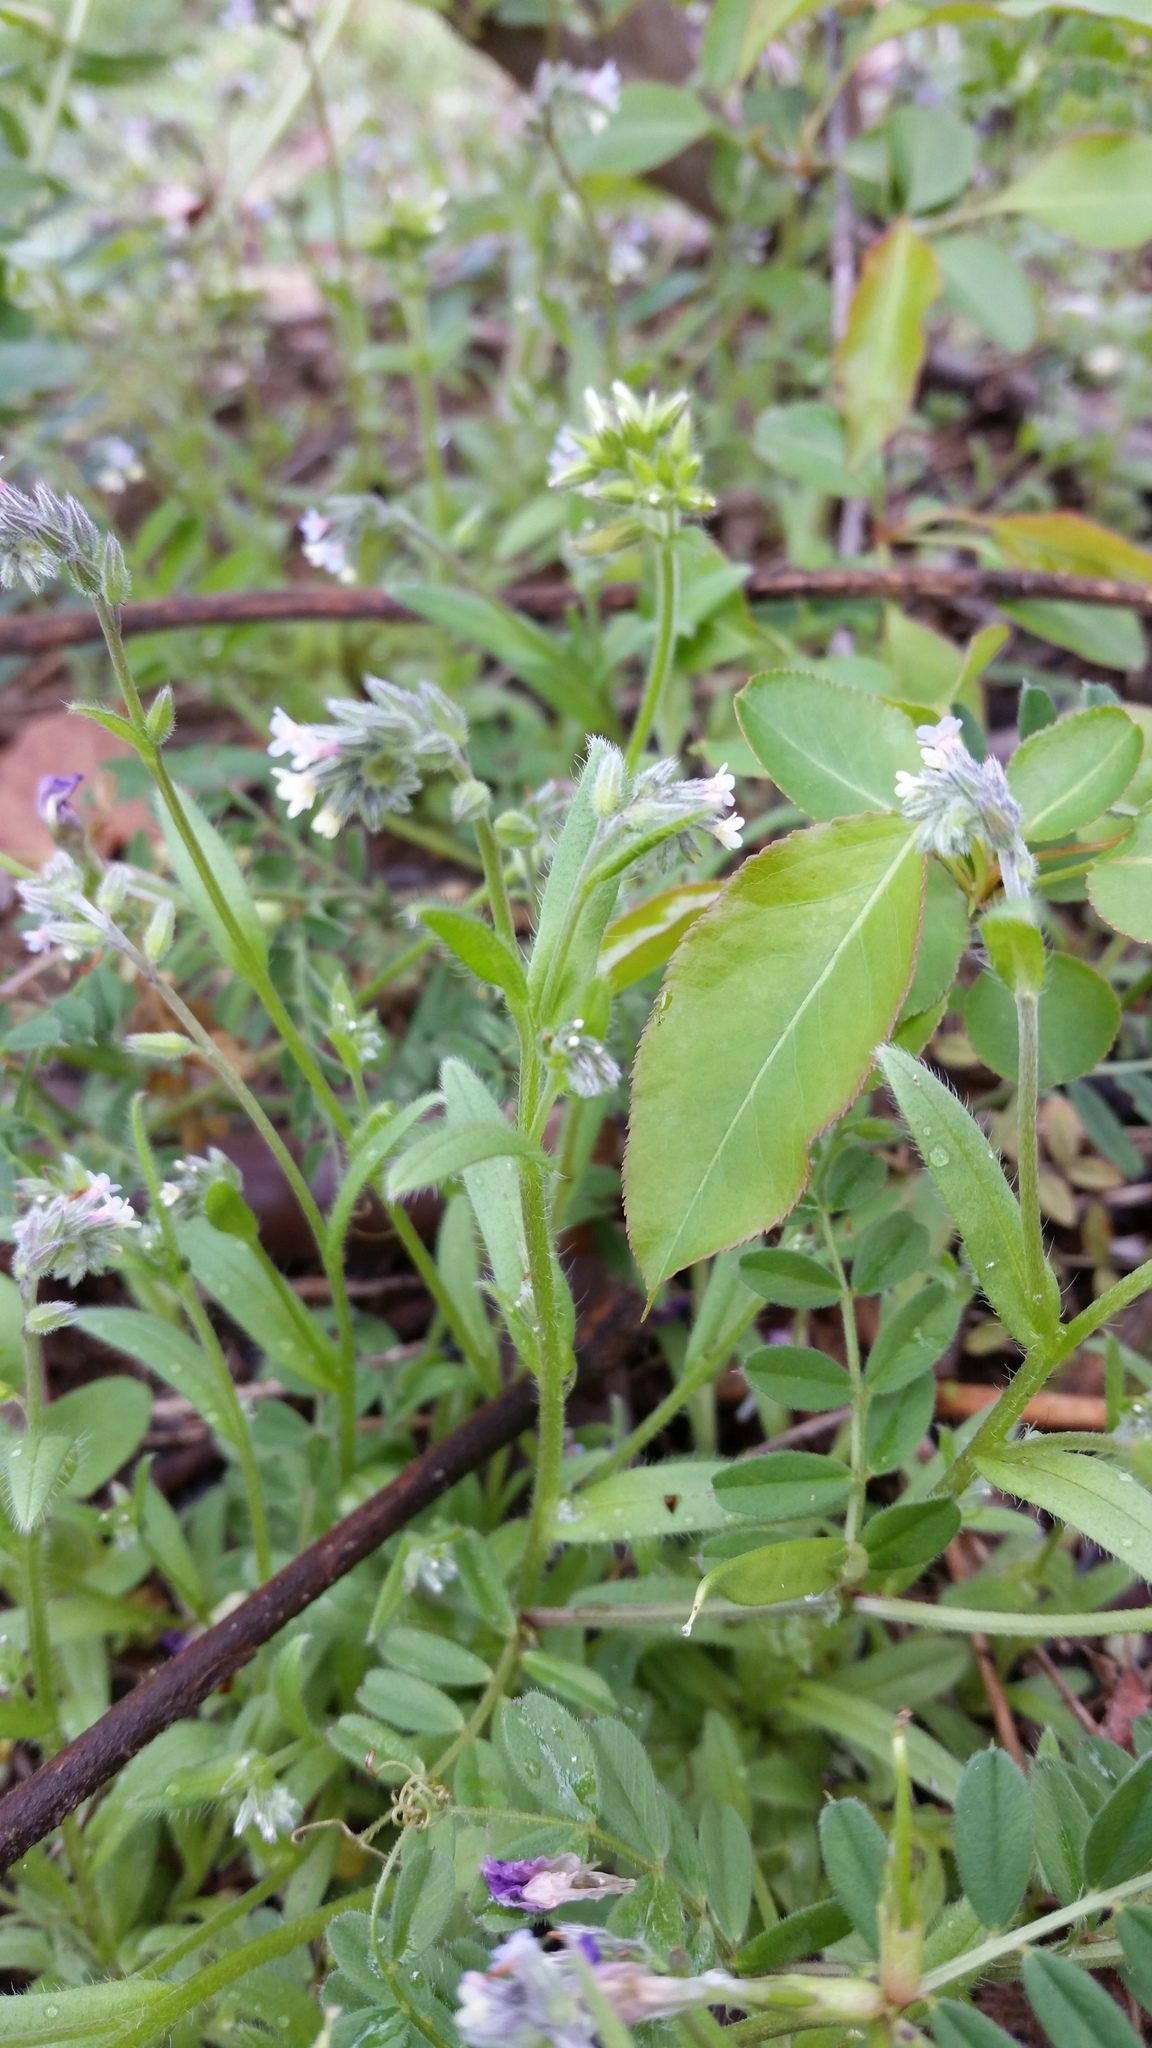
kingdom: Plantae
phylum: Tracheophyta
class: Magnoliopsida
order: Boraginales
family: Boraginaceae
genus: Myosotis
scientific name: Myosotis discolor
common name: Changing forget-me-not
